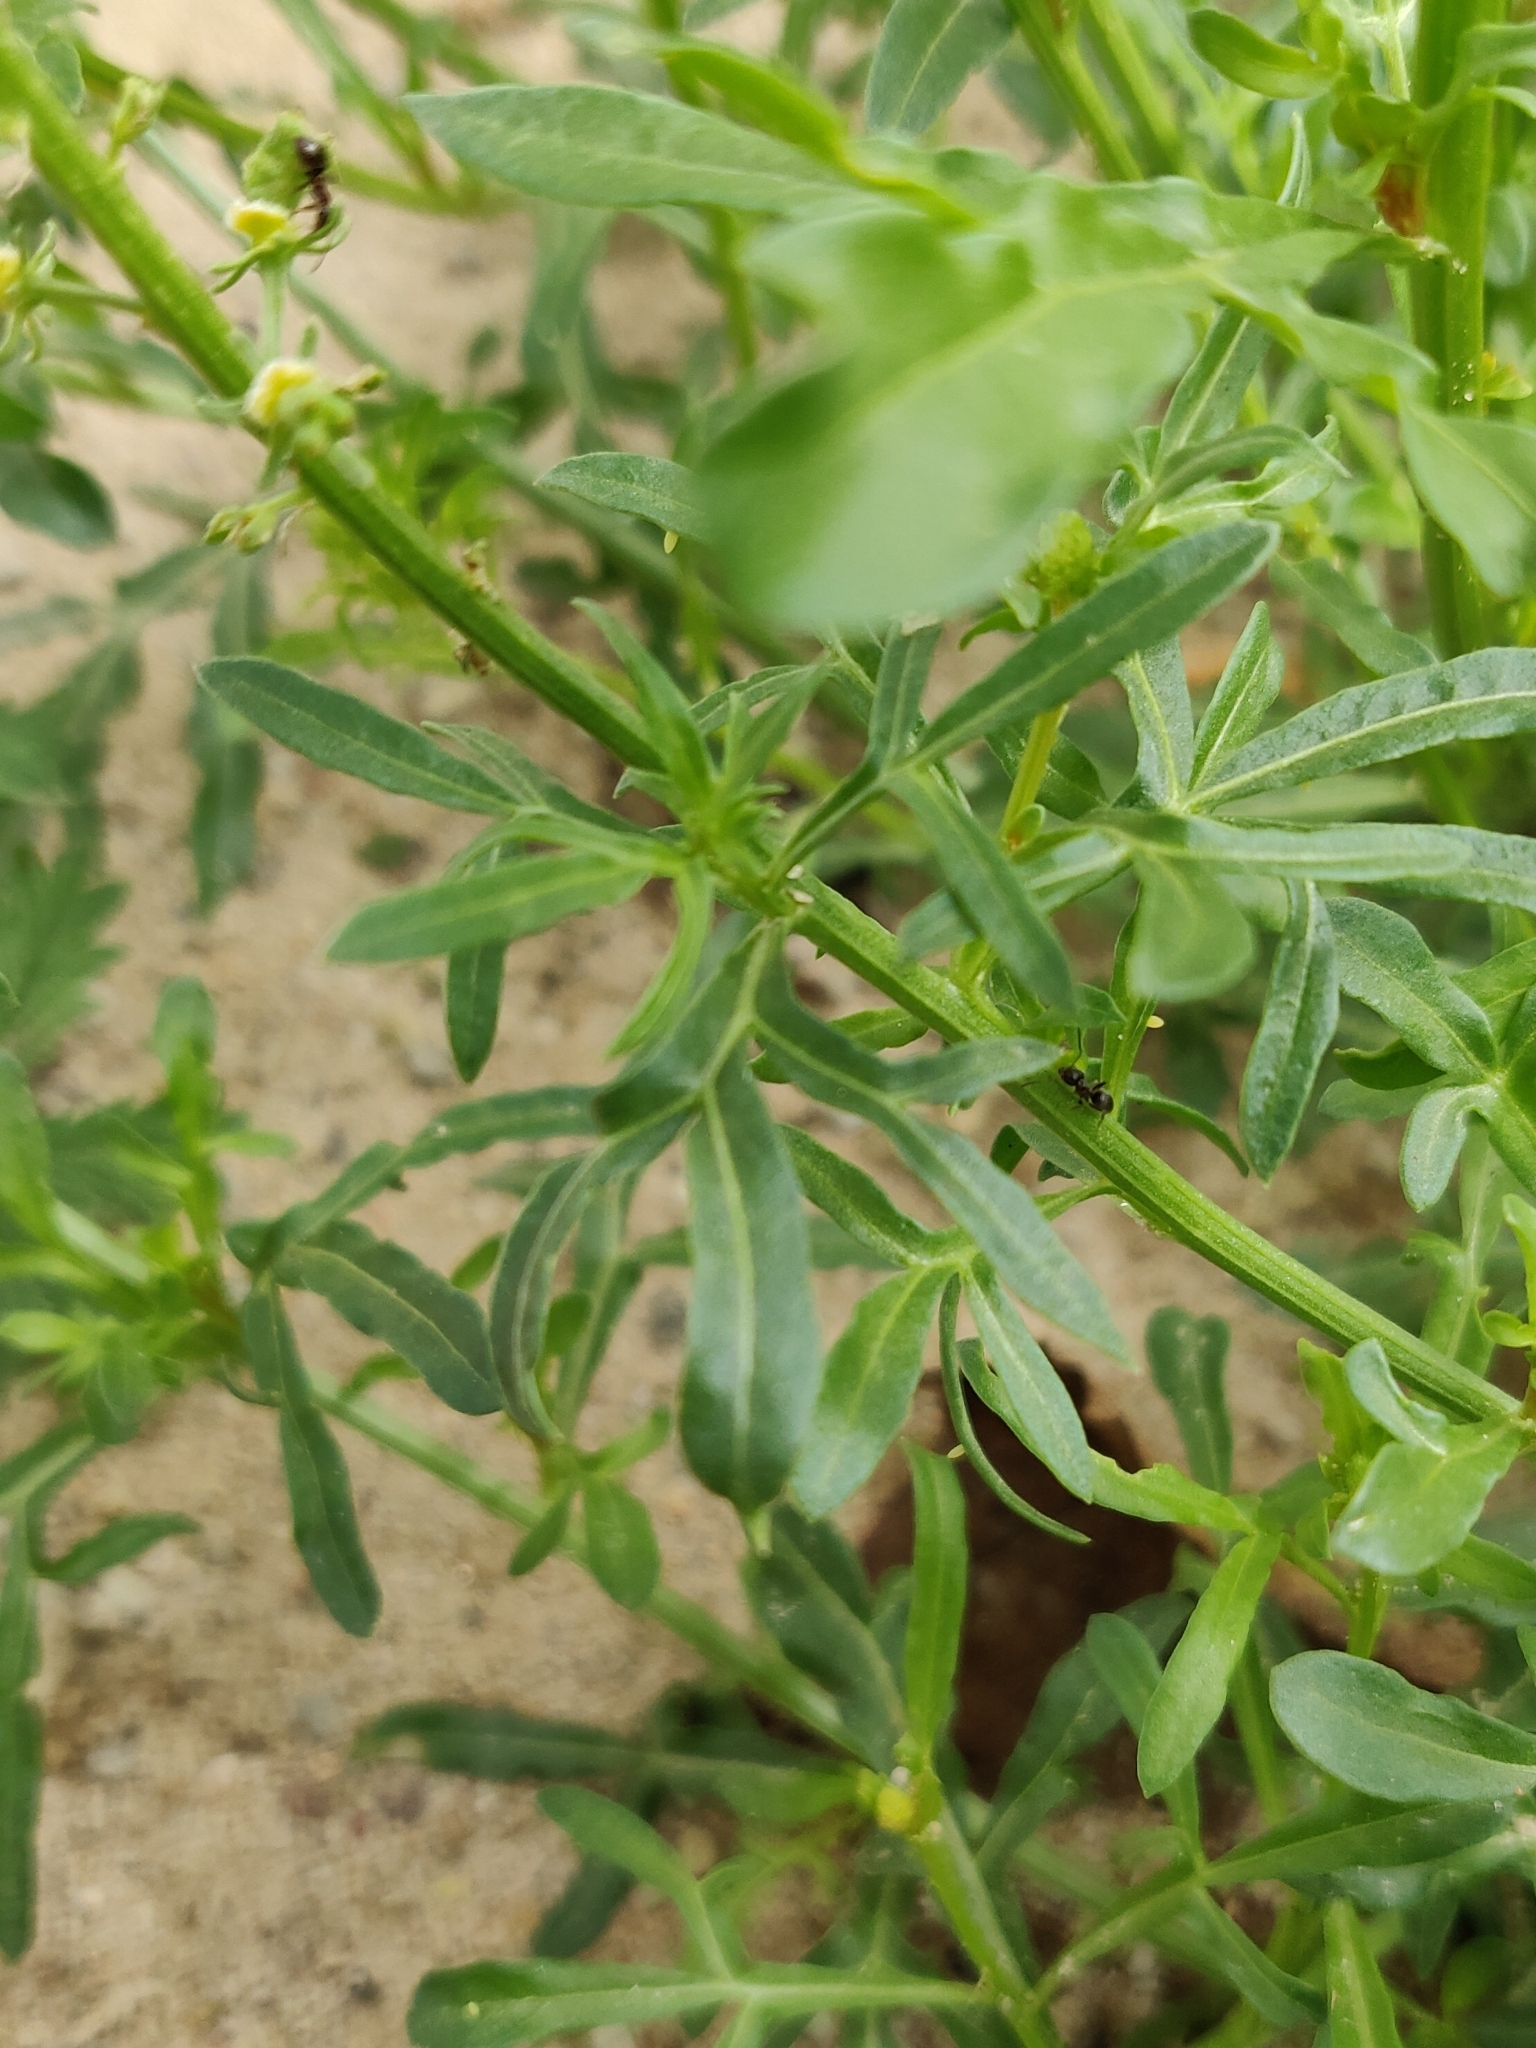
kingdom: Plantae
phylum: Tracheophyta
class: Magnoliopsida
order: Brassicales
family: Resedaceae
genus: Reseda
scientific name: Reseda lutea
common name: Wild mignonette
